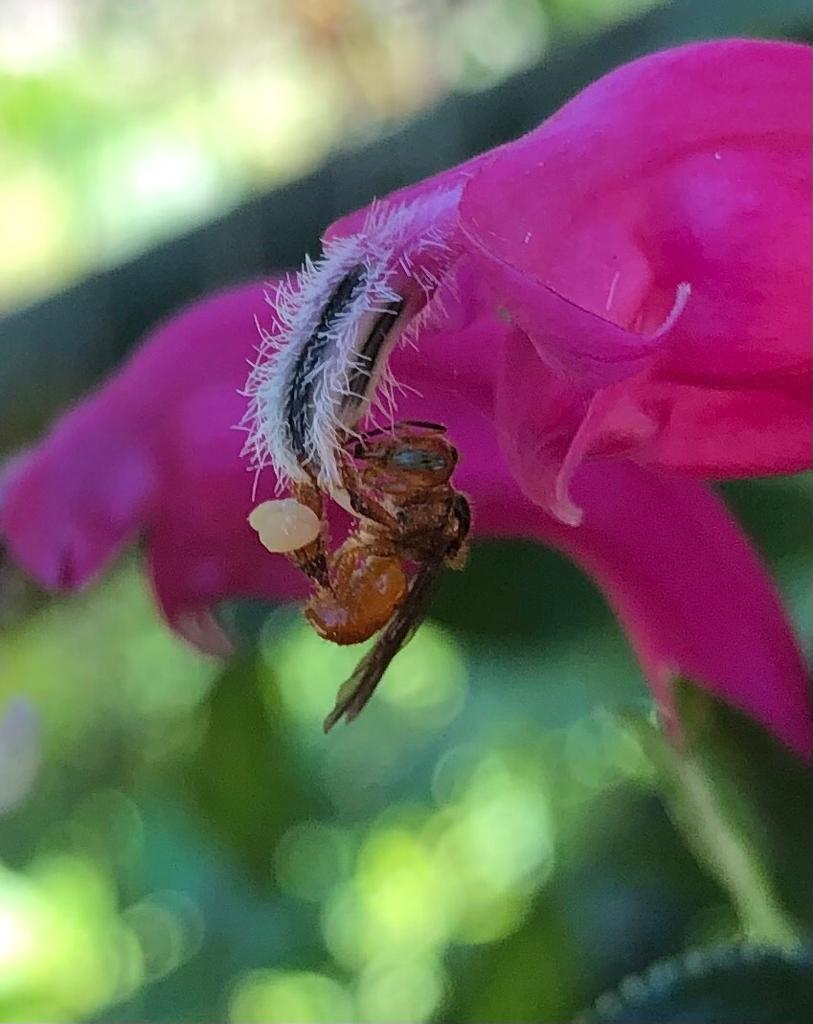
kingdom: Animalia
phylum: Arthropoda
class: Insecta
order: Hymenoptera
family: Apidae
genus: Trigona
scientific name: Trigona chanchamayoensis
